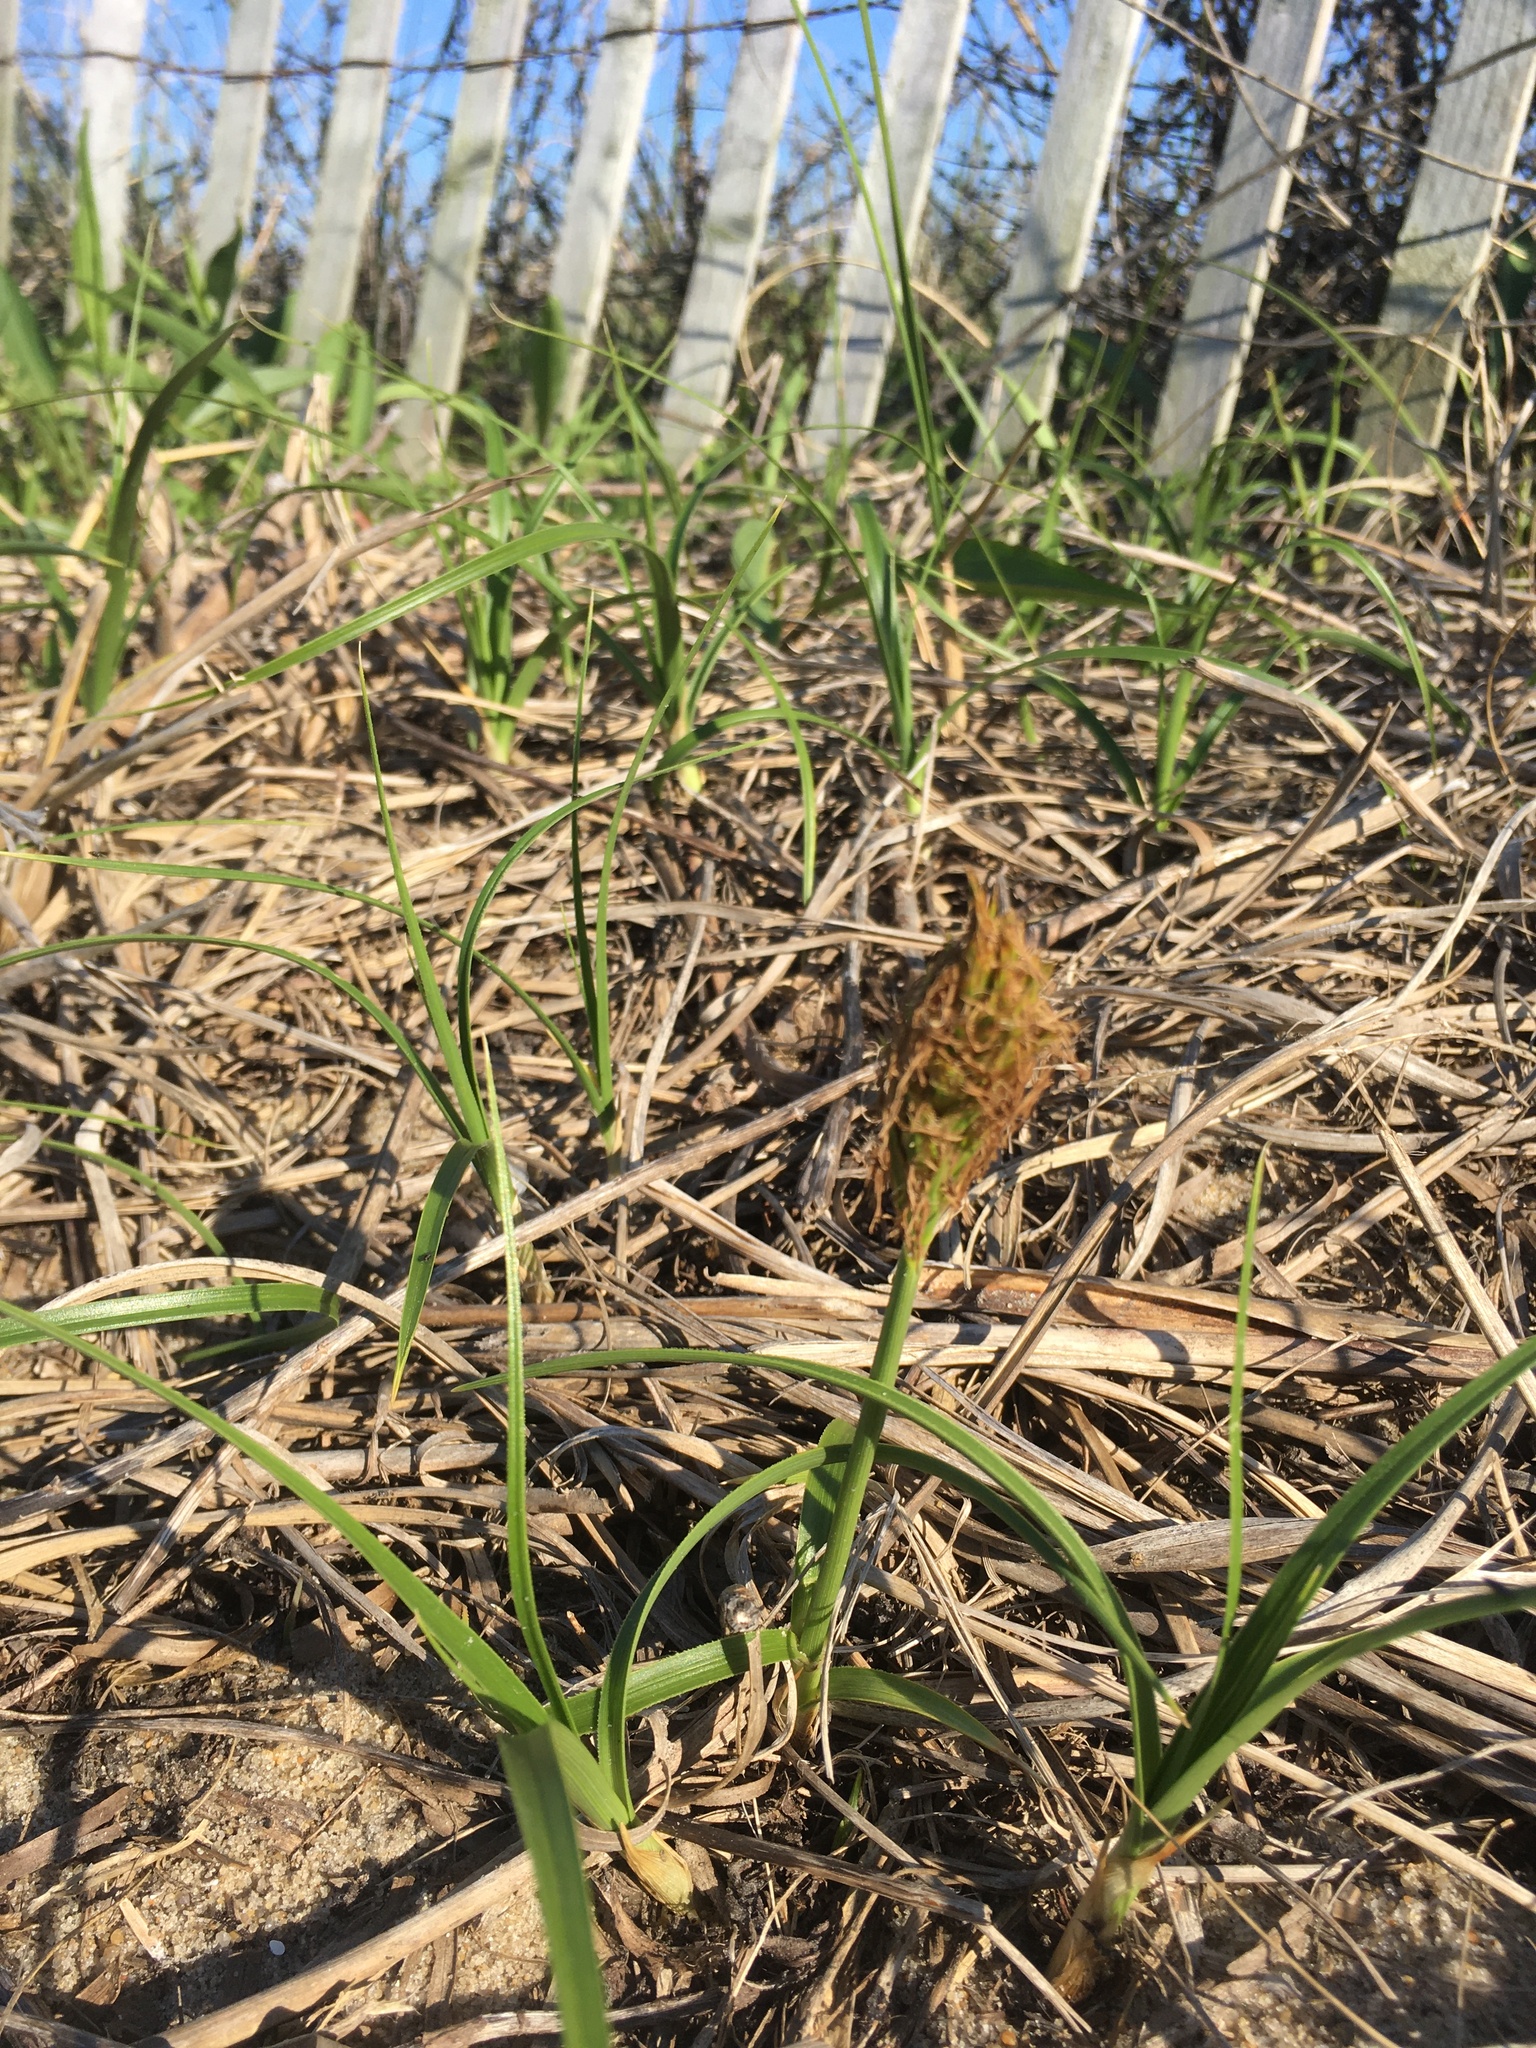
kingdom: Plantae
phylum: Tracheophyta
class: Liliopsida
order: Poales
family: Cyperaceae
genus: Carex
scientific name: Carex kobomugi
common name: Japanese sedge
